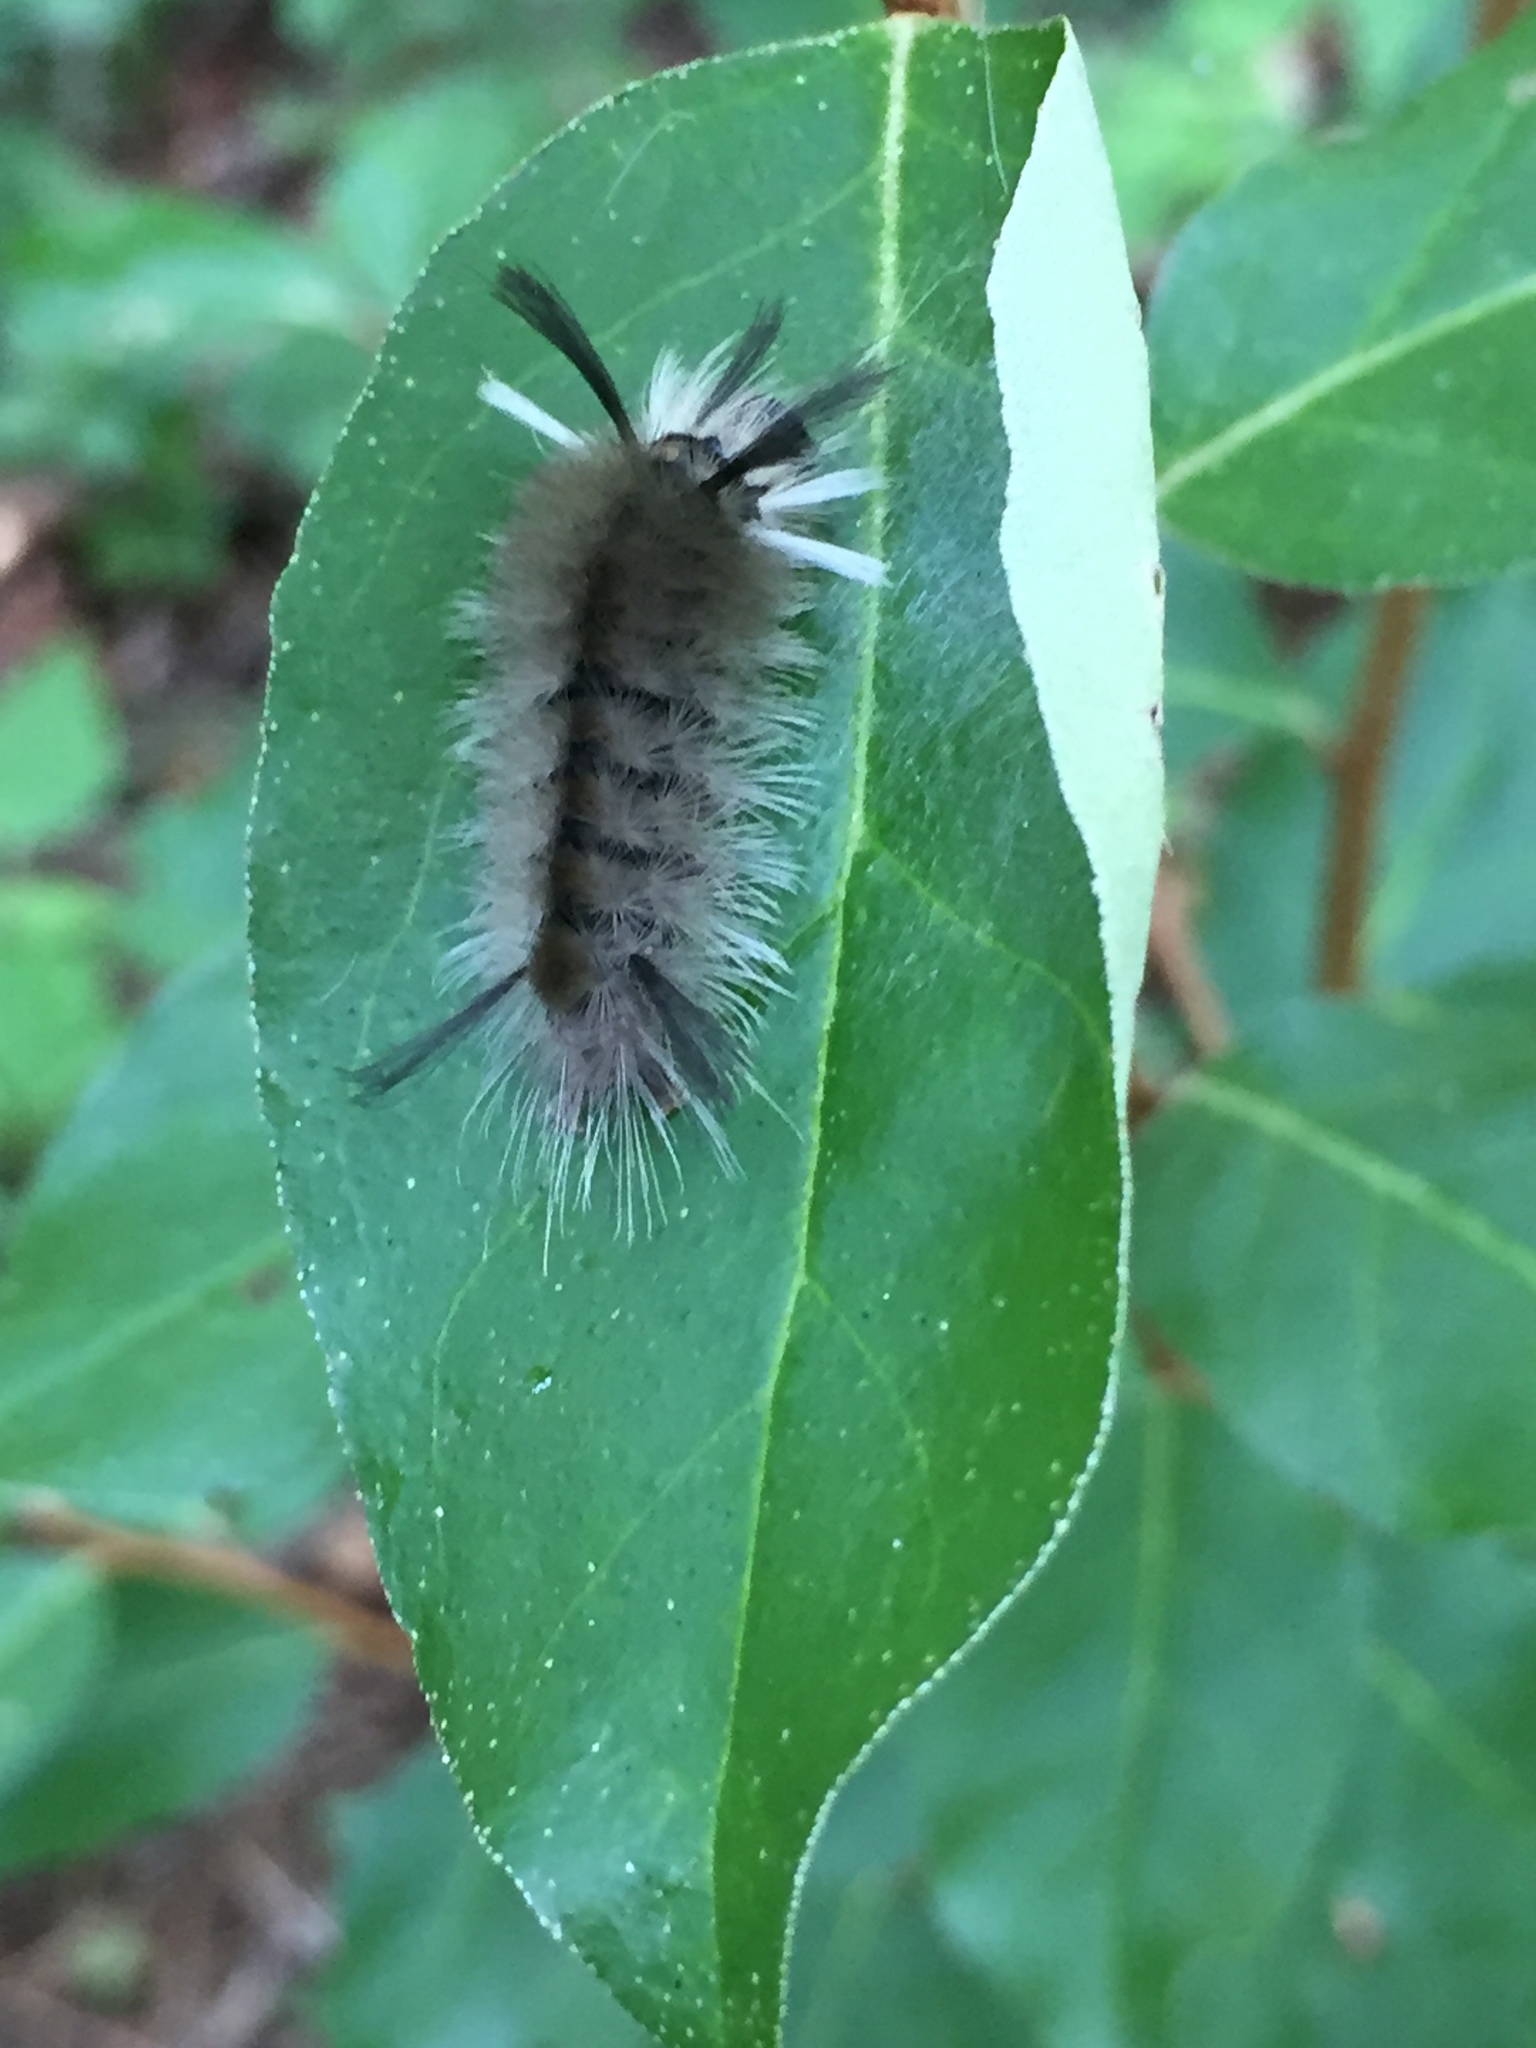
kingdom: Animalia
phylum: Arthropoda
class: Insecta
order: Lepidoptera
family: Erebidae
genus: Halysidota
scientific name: Halysidota tessellaris
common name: Banded tussock moth
